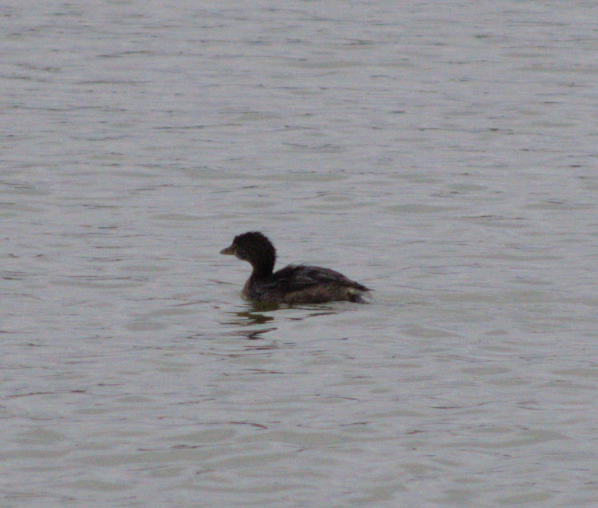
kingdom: Animalia
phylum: Chordata
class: Aves
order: Podicipediformes
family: Podicipedidae
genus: Podilymbus
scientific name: Podilymbus podiceps
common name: Pied-billed grebe
